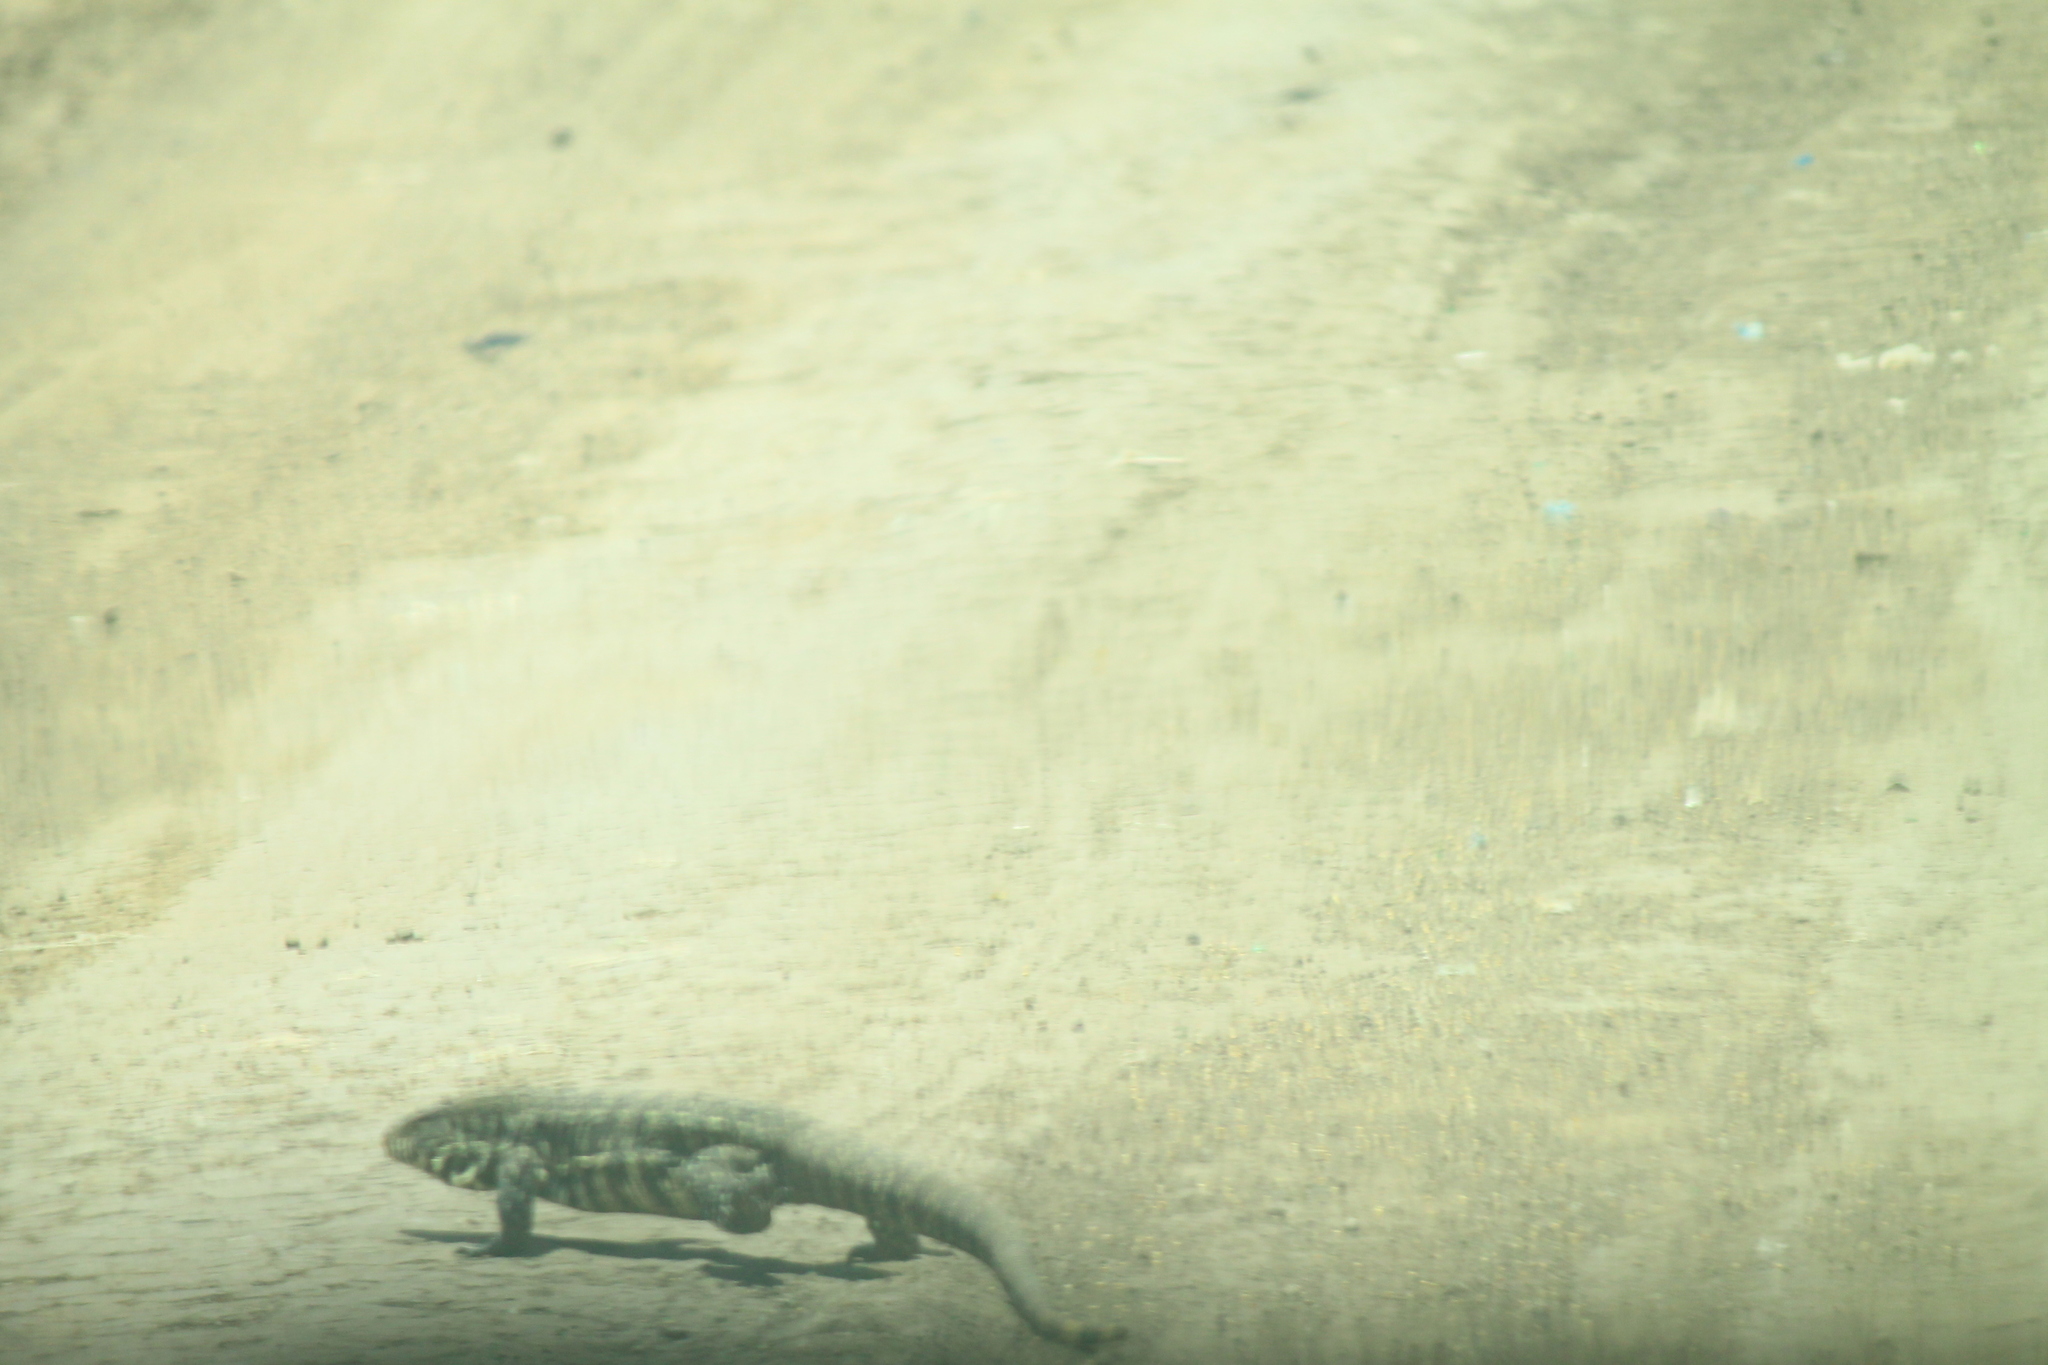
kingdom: Animalia
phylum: Chordata
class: Squamata
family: Teiidae
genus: Salvator
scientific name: Salvator merianae
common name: Argentine black and white tegu
